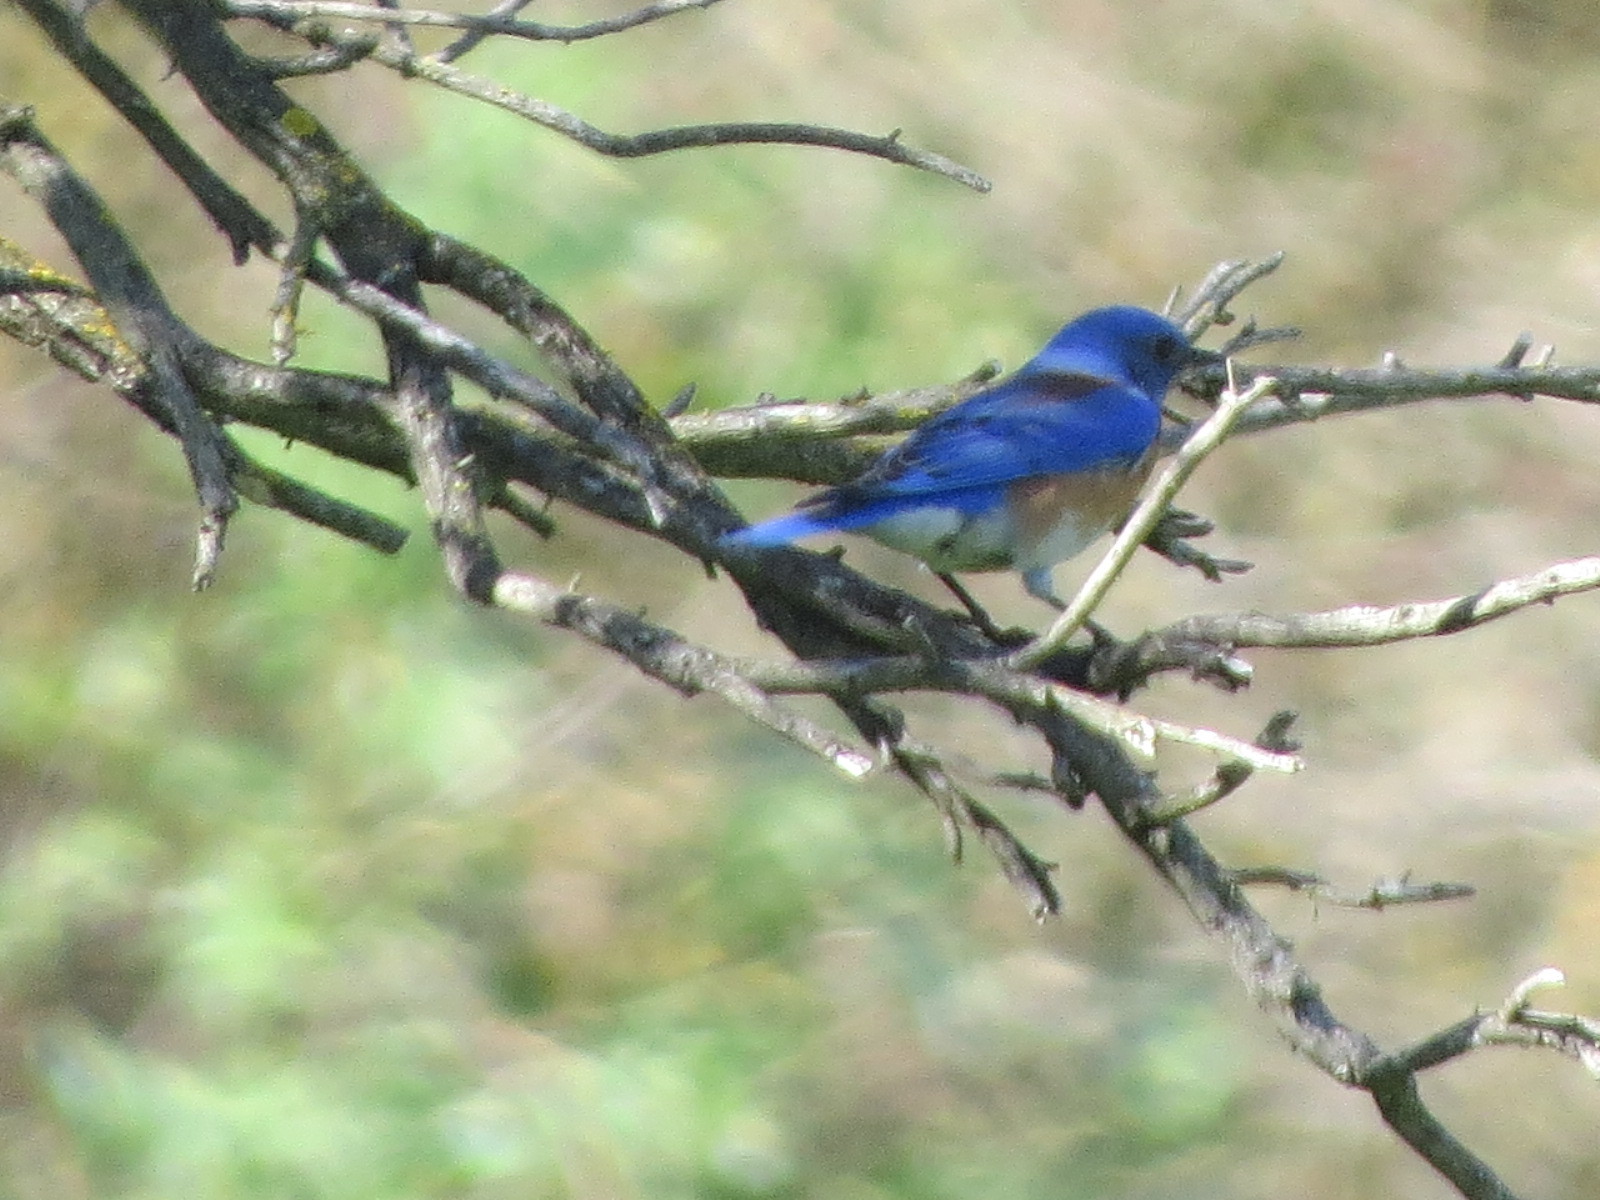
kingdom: Animalia
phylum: Chordata
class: Aves
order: Passeriformes
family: Turdidae
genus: Sialia
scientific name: Sialia mexicana
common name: Western bluebird
